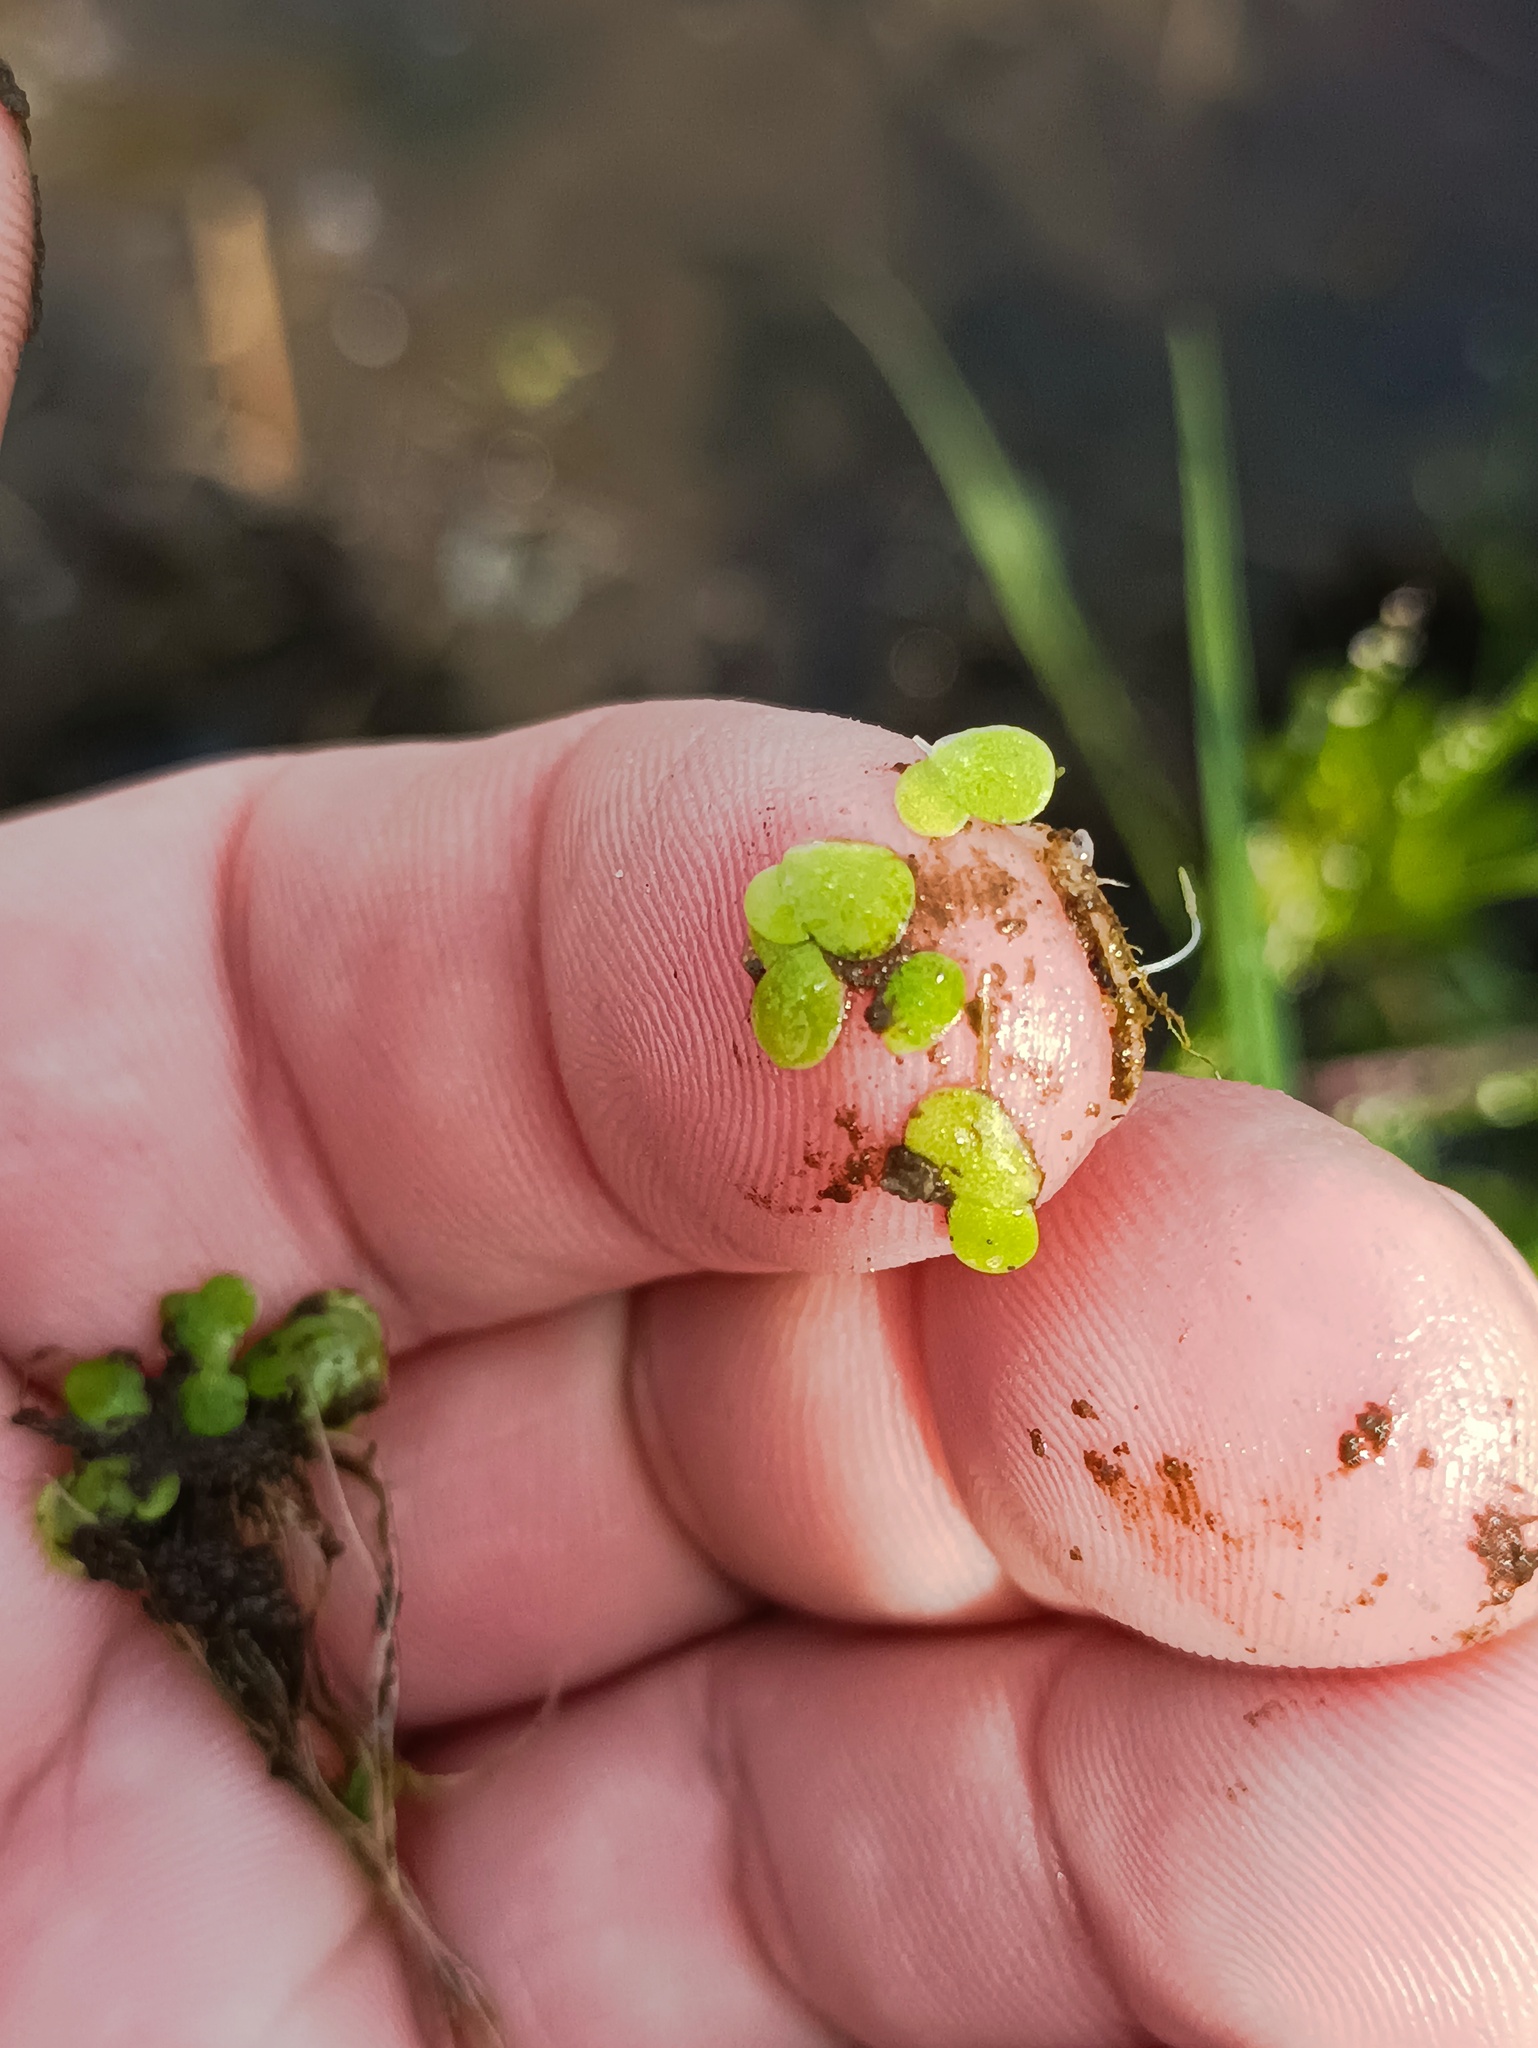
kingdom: Plantae
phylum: Tracheophyta
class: Liliopsida
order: Alismatales
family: Araceae
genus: Lemna
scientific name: Lemna minor
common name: Common duckweed
